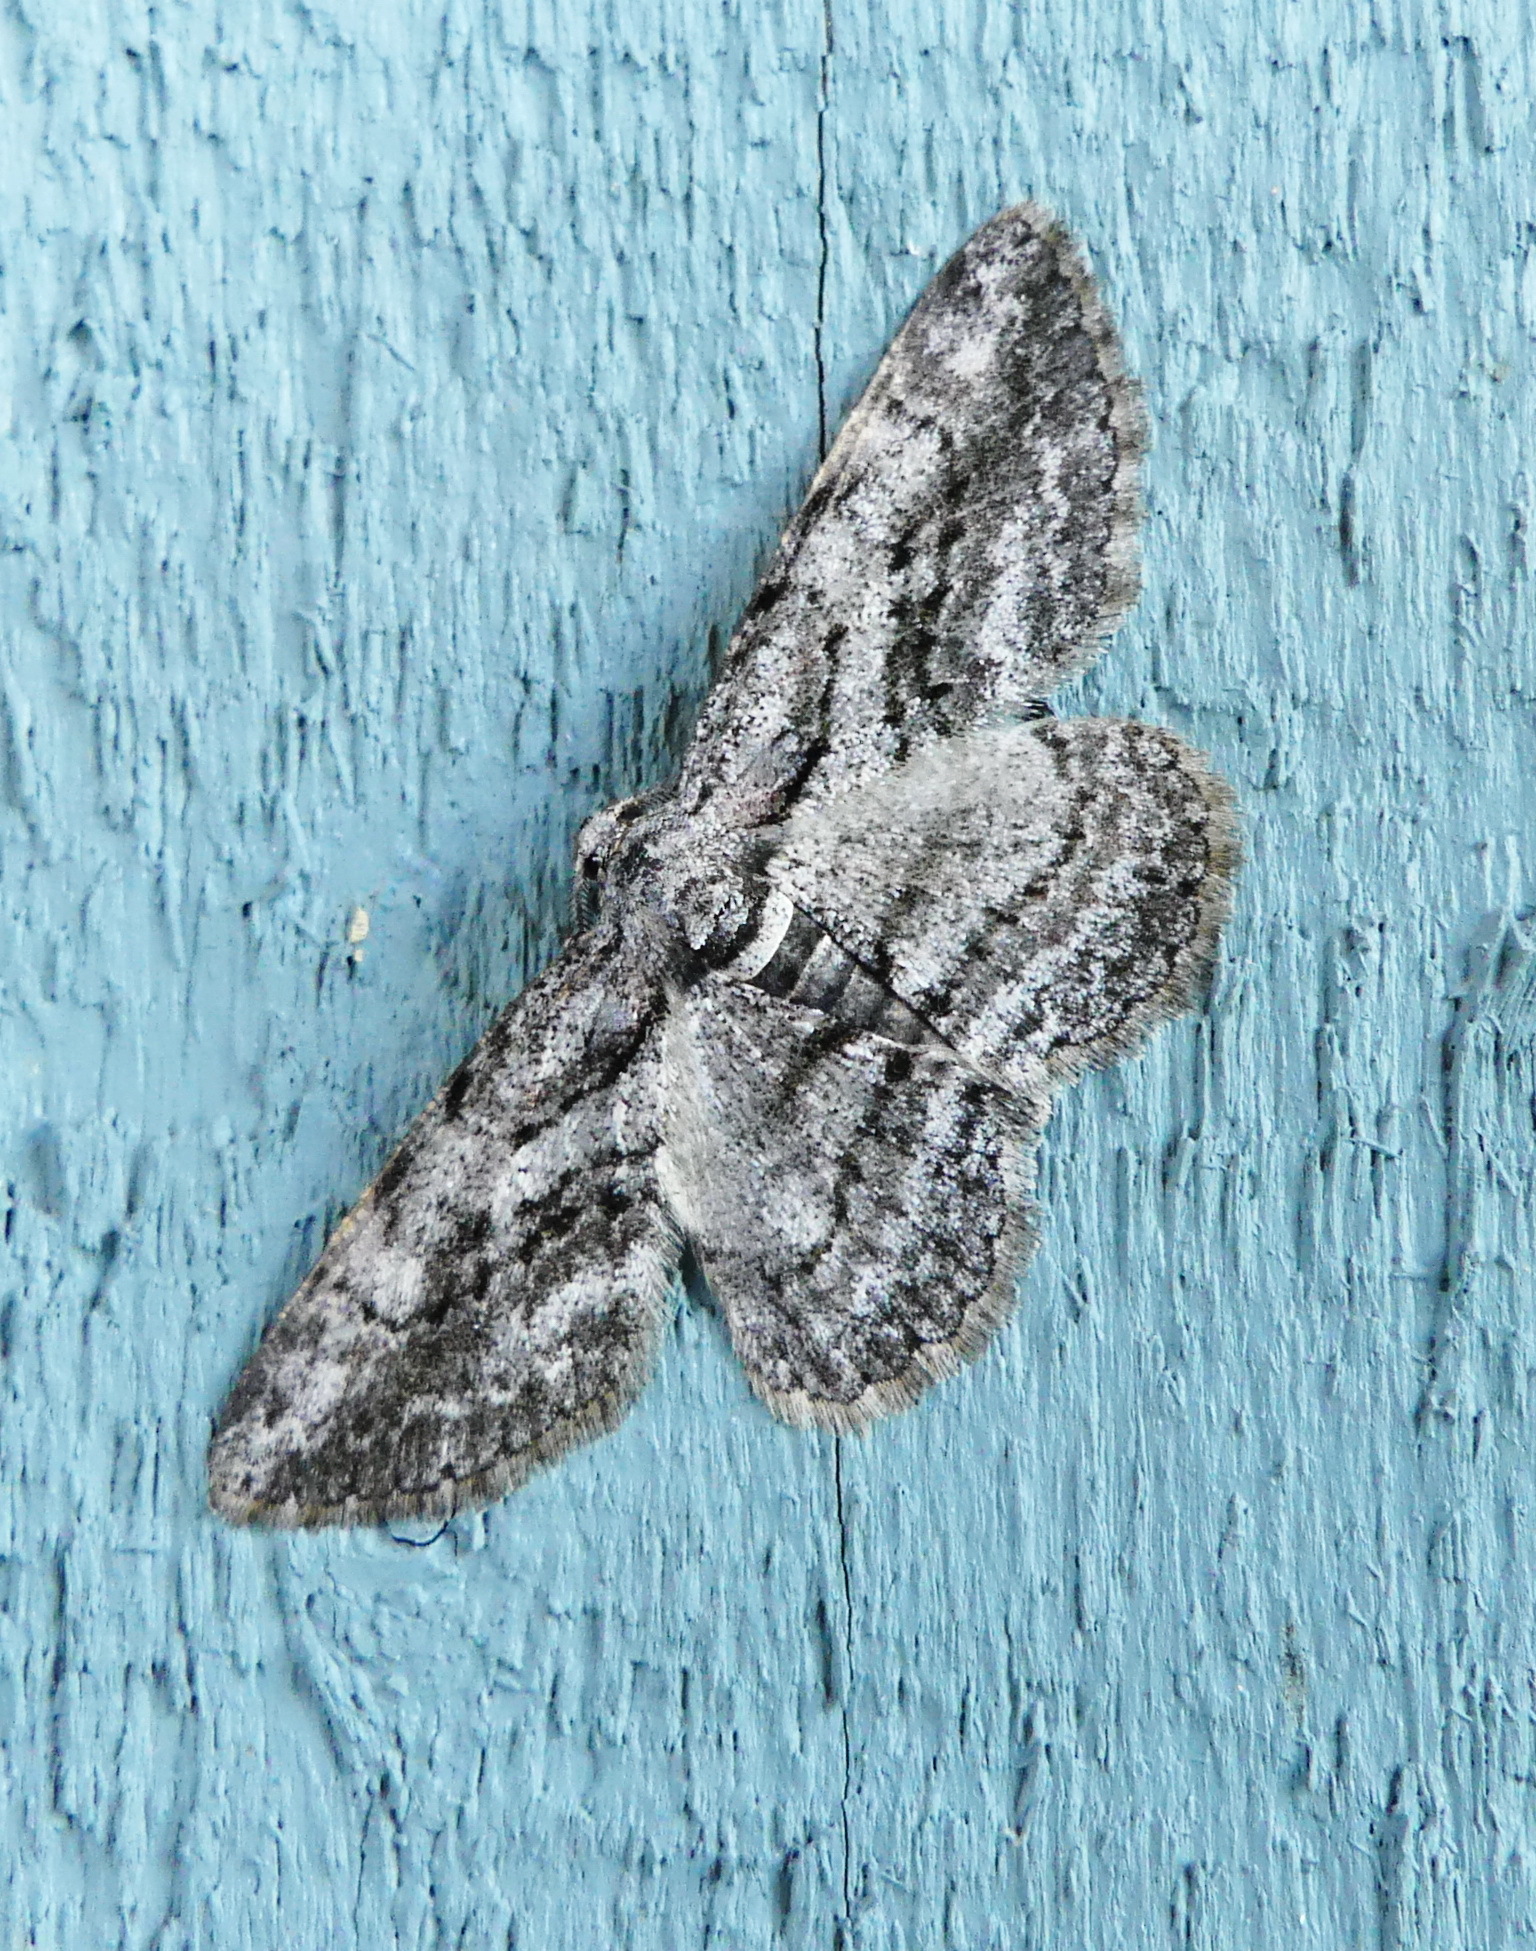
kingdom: Animalia
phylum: Arthropoda
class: Insecta
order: Lepidoptera
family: Geometridae
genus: Anavitrinella
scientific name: Anavitrinella pampinaria
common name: Common gray
